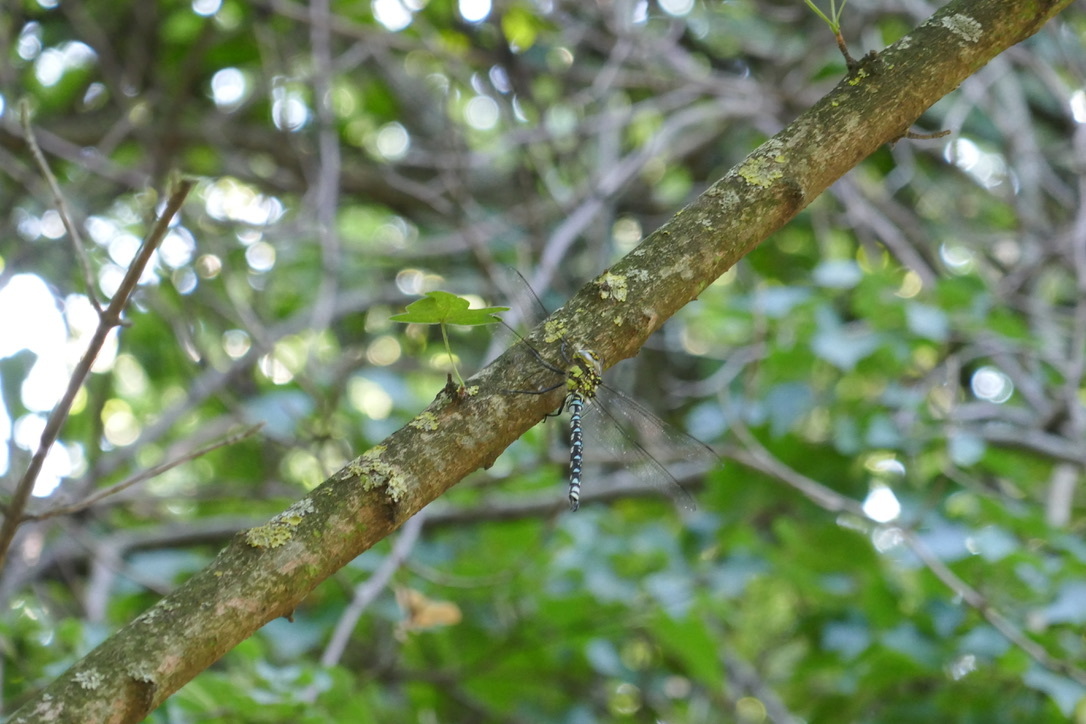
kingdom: Animalia
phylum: Arthropoda
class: Insecta
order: Odonata
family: Aeshnidae
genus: Aeshna
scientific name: Aeshna cyanea
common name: Southern hawker
